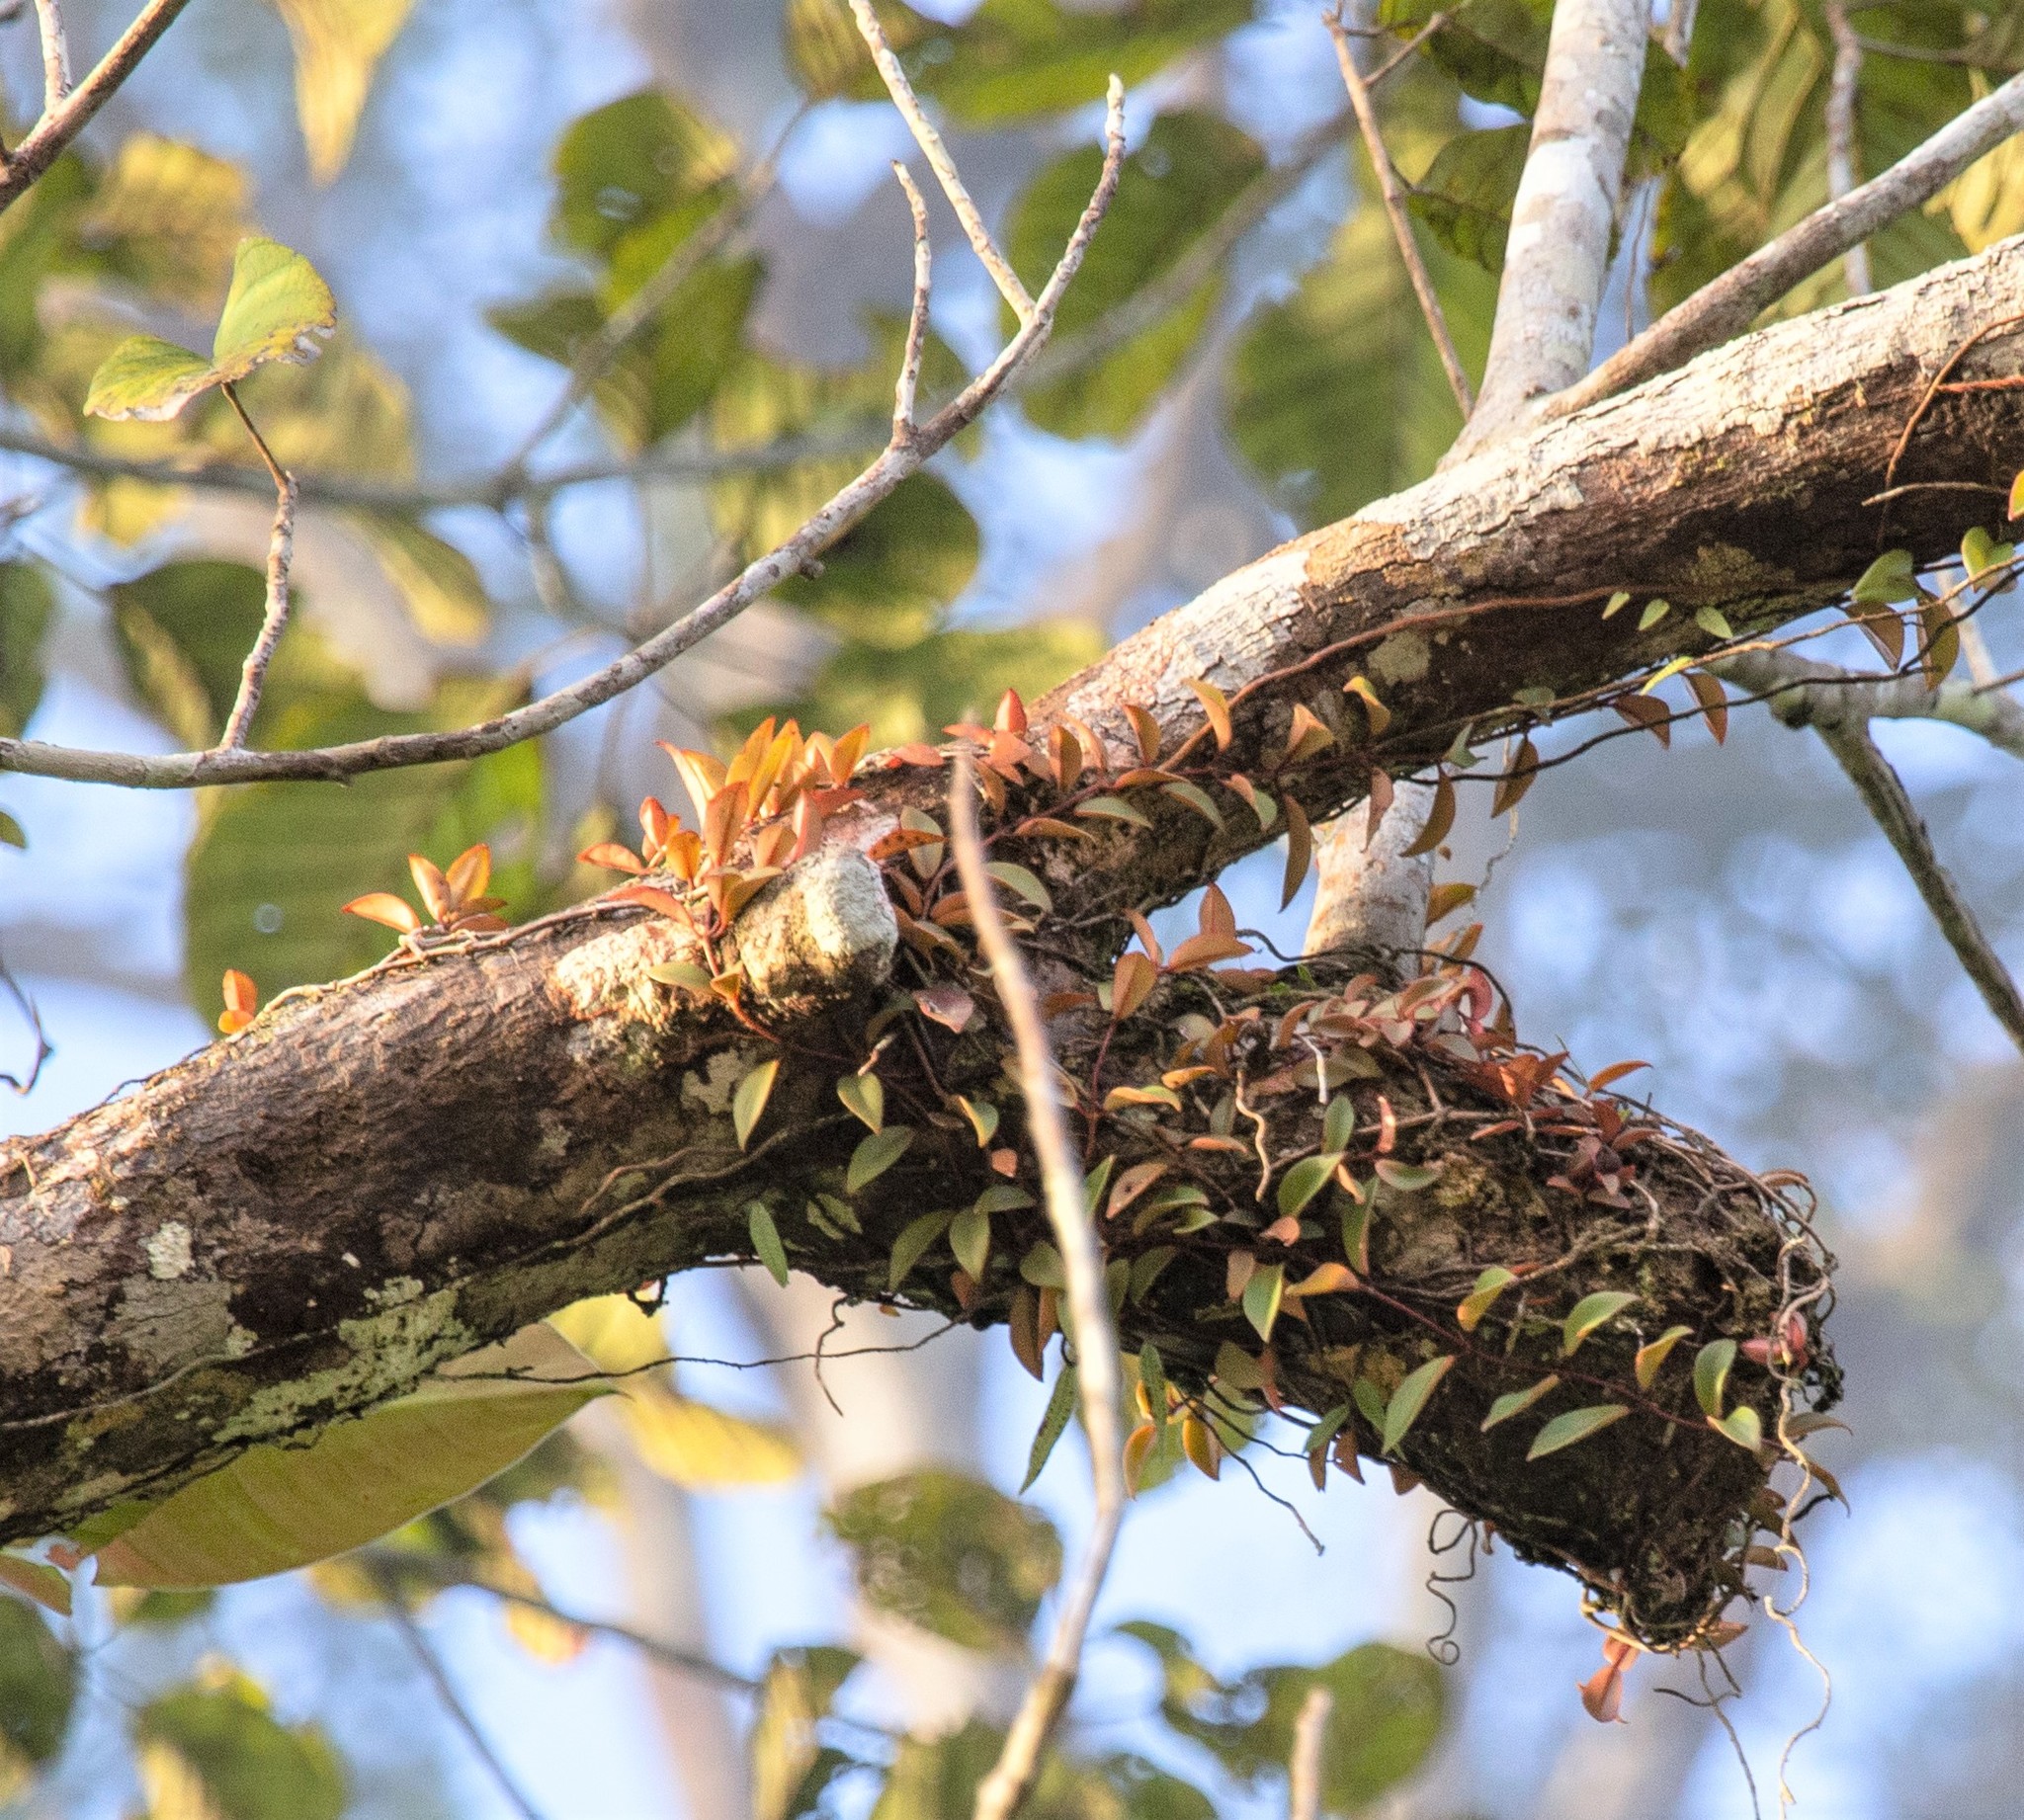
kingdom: Plantae
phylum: Tracheophyta
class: Magnoliopsida
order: Lamiales
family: Gesneriaceae
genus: Codonanthopsis
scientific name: Codonanthopsis crassifolia
